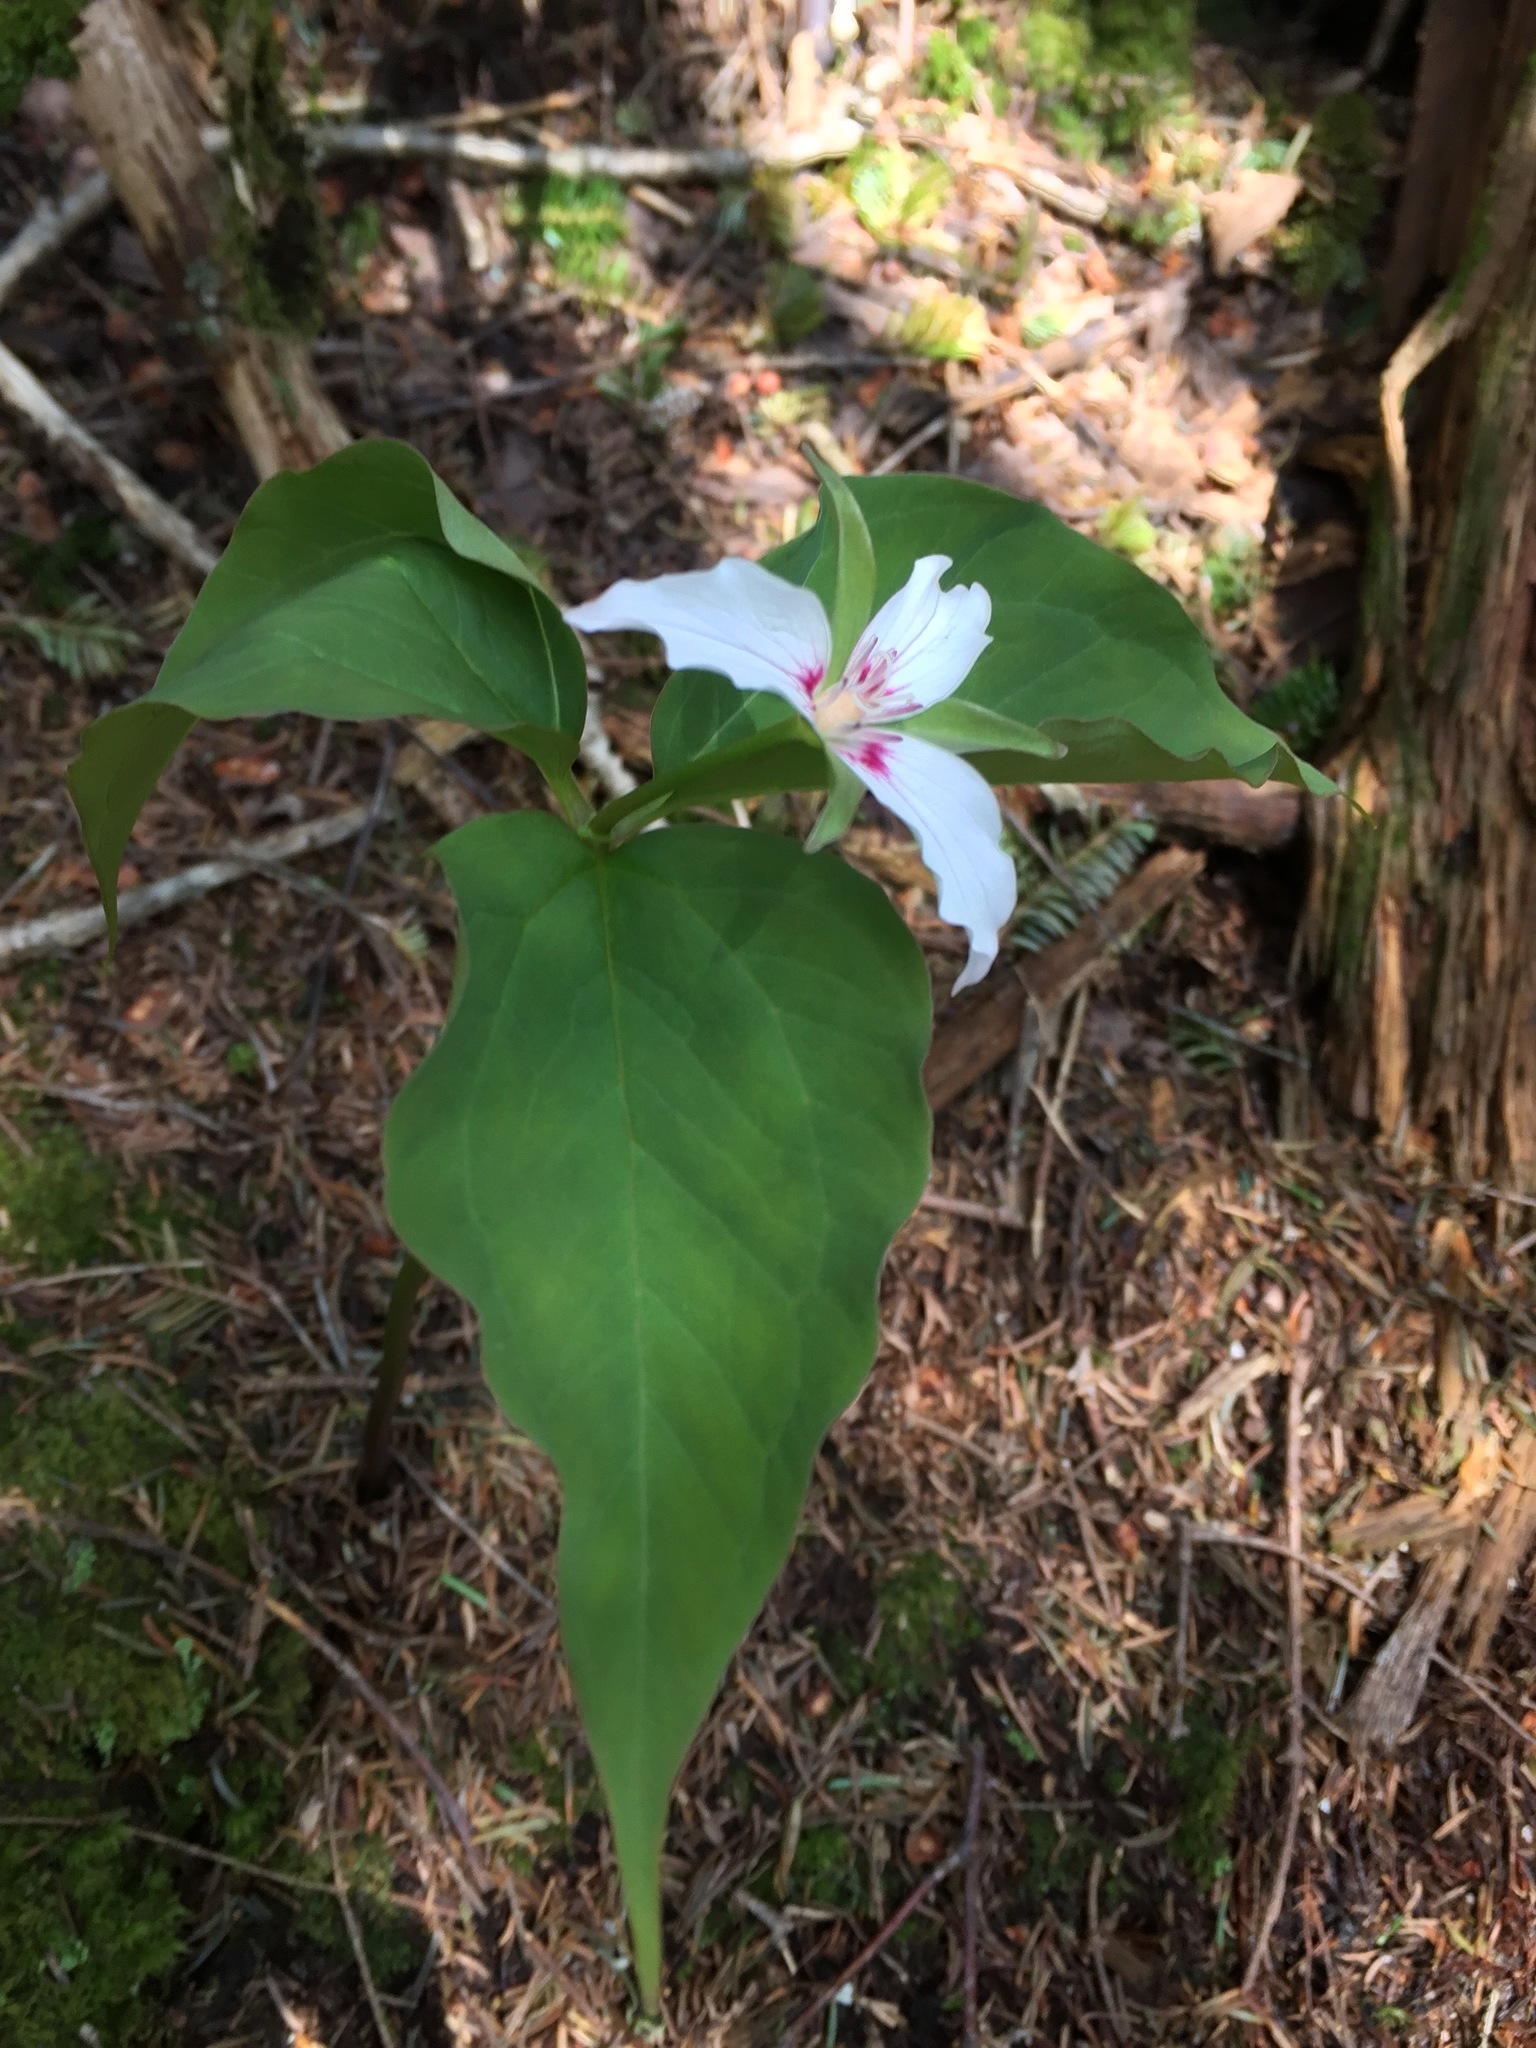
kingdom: Plantae
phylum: Tracheophyta
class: Liliopsida
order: Liliales
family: Melanthiaceae
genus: Trillium
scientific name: Trillium undulatum
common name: Paint trillium
